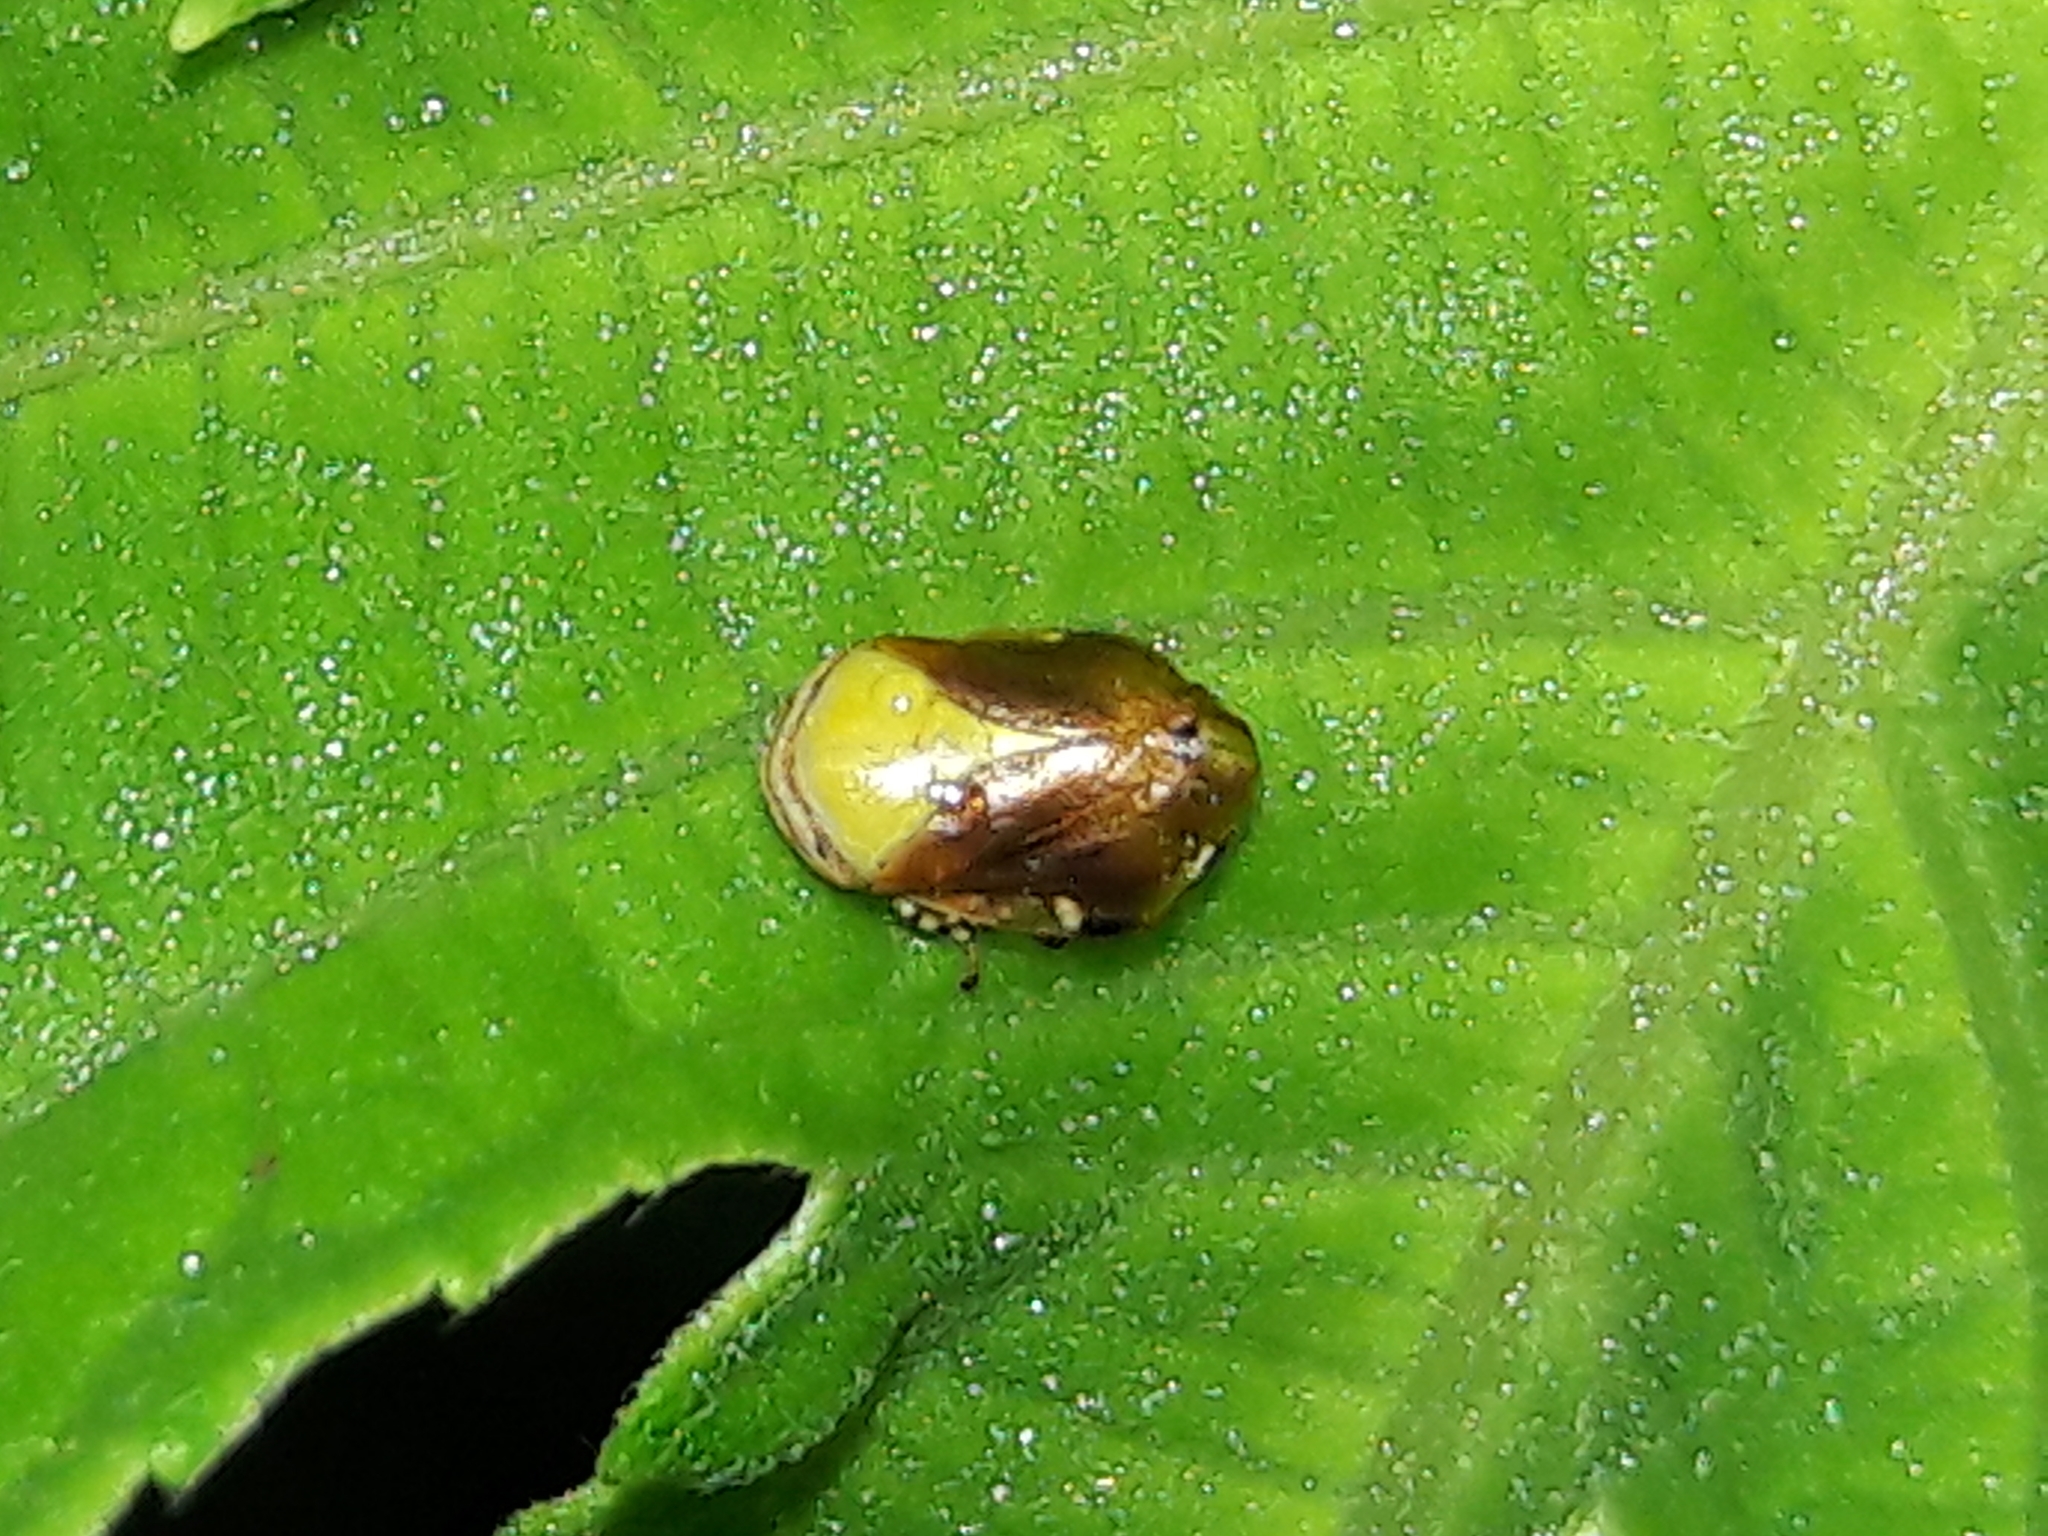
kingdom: Animalia
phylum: Arthropoda
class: Insecta
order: Hemiptera
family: Clastopteridae
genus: Clastoptera
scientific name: Clastoptera cimicoides
